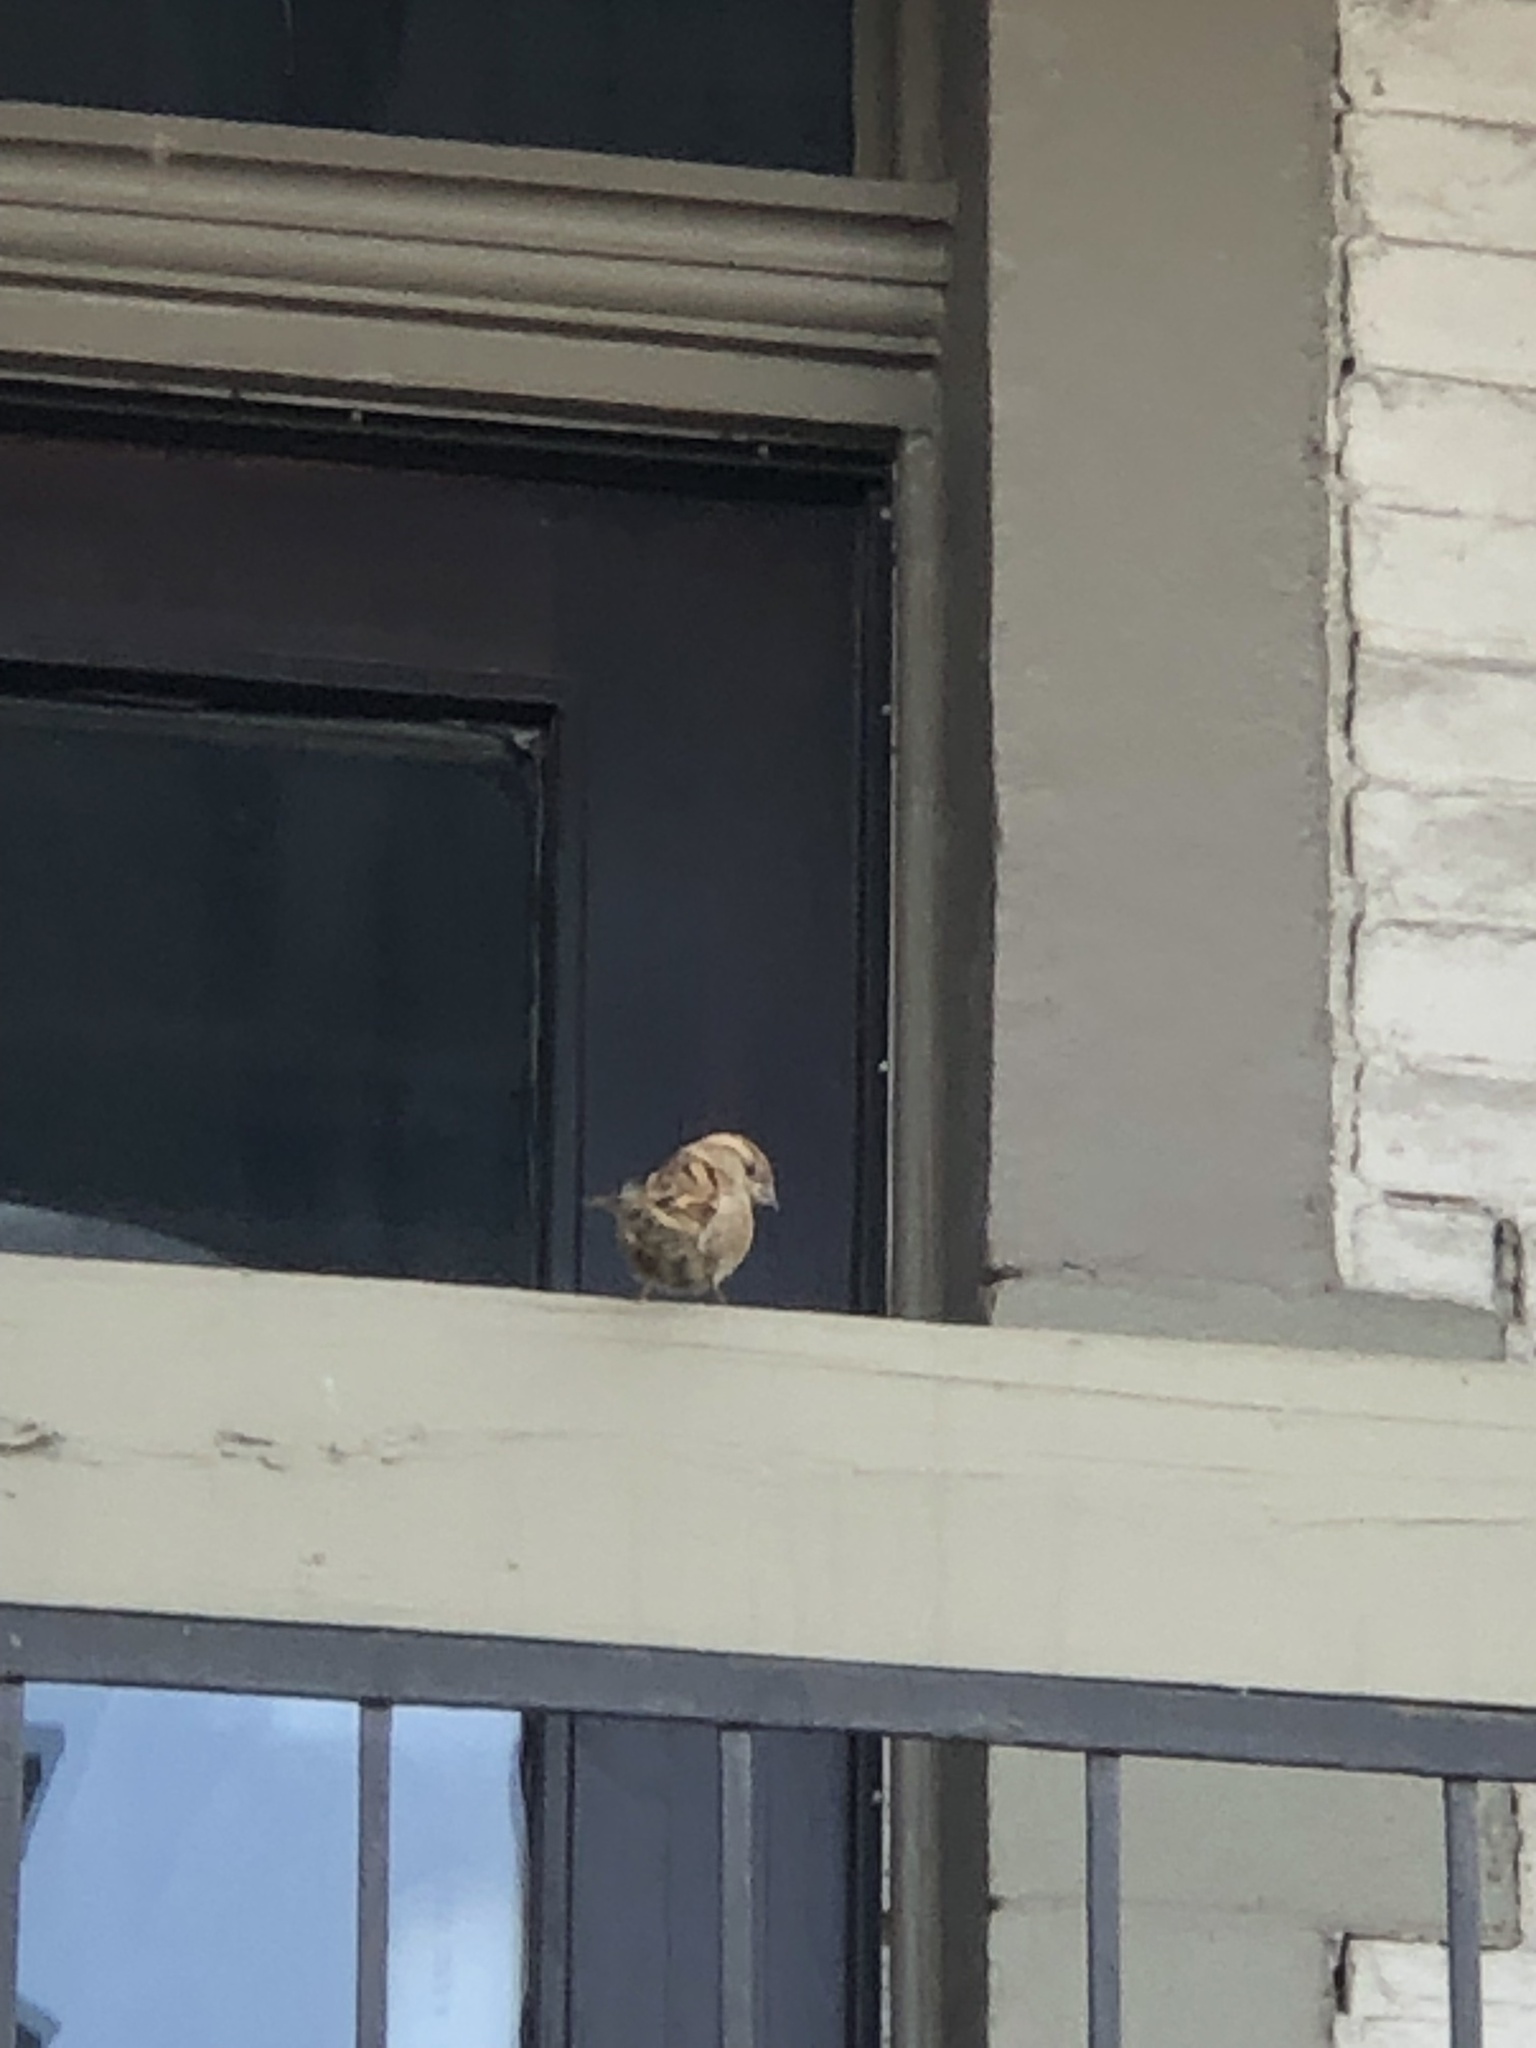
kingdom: Animalia
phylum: Chordata
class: Aves
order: Passeriformes
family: Passeridae
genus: Passer
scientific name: Passer domesticus
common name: House sparrow
